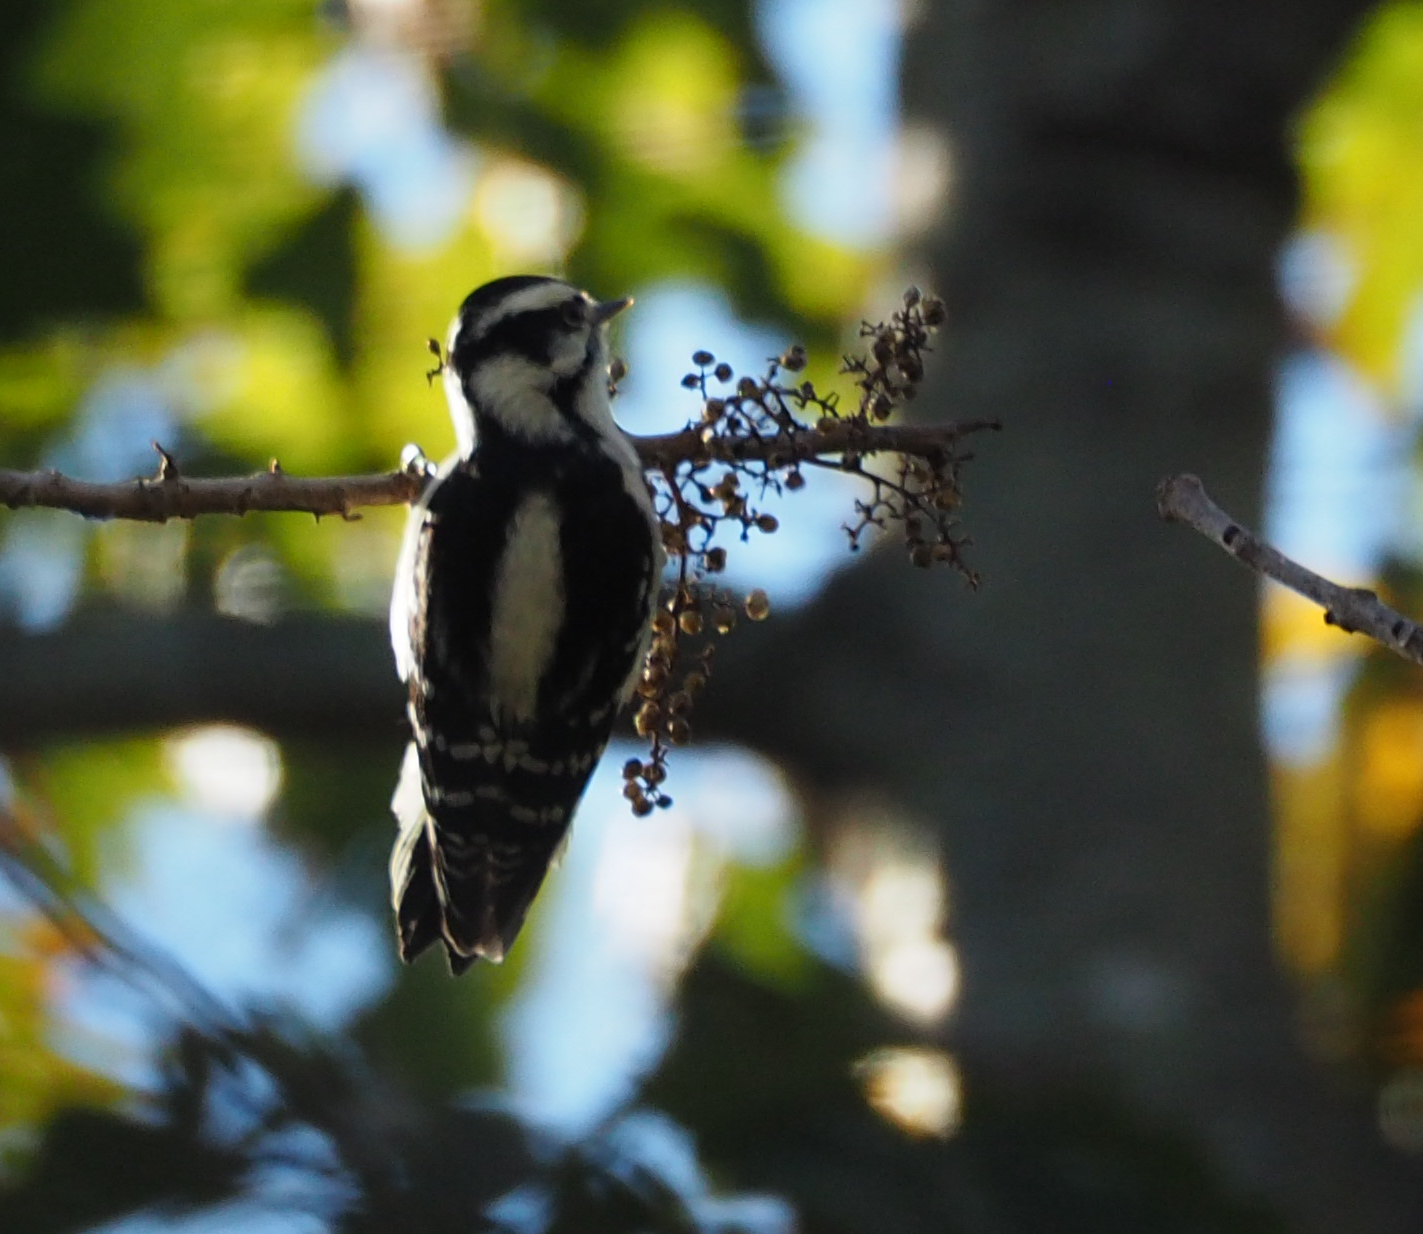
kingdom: Animalia
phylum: Chordata
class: Aves
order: Piciformes
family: Picidae
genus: Dryobates
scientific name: Dryobates pubescens
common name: Downy woodpecker
